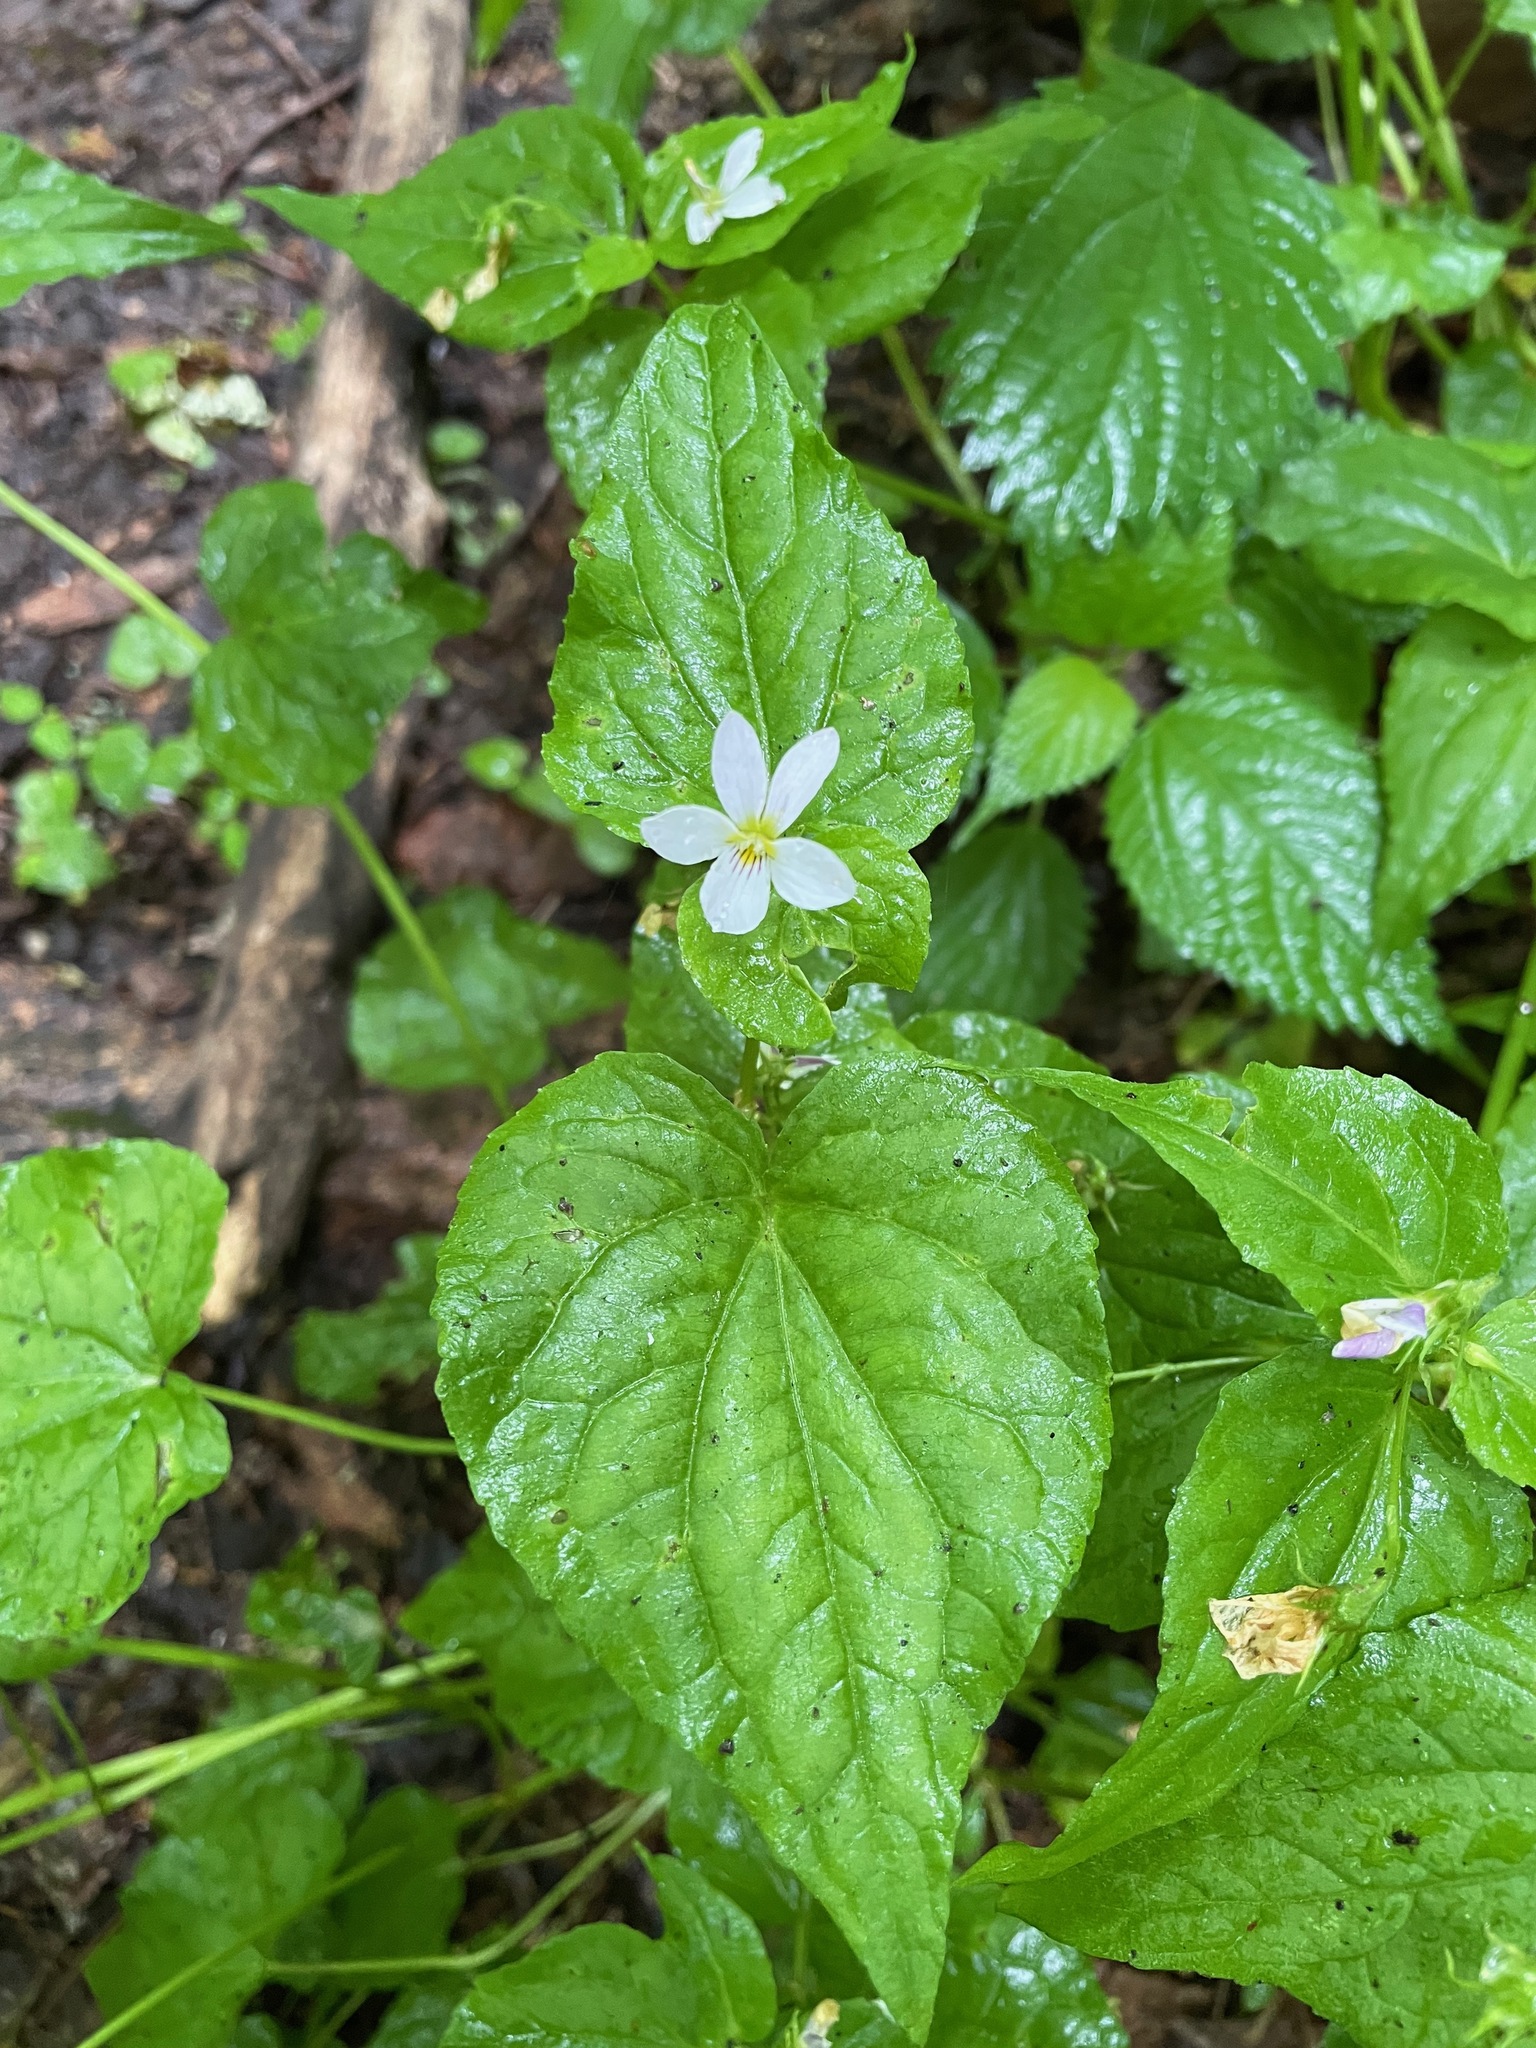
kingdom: Plantae
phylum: Tracheophyta
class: Magnoliopsida
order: Malpighiales
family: Violaceae
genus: Viola
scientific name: Viola canadensis
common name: Canada violet
